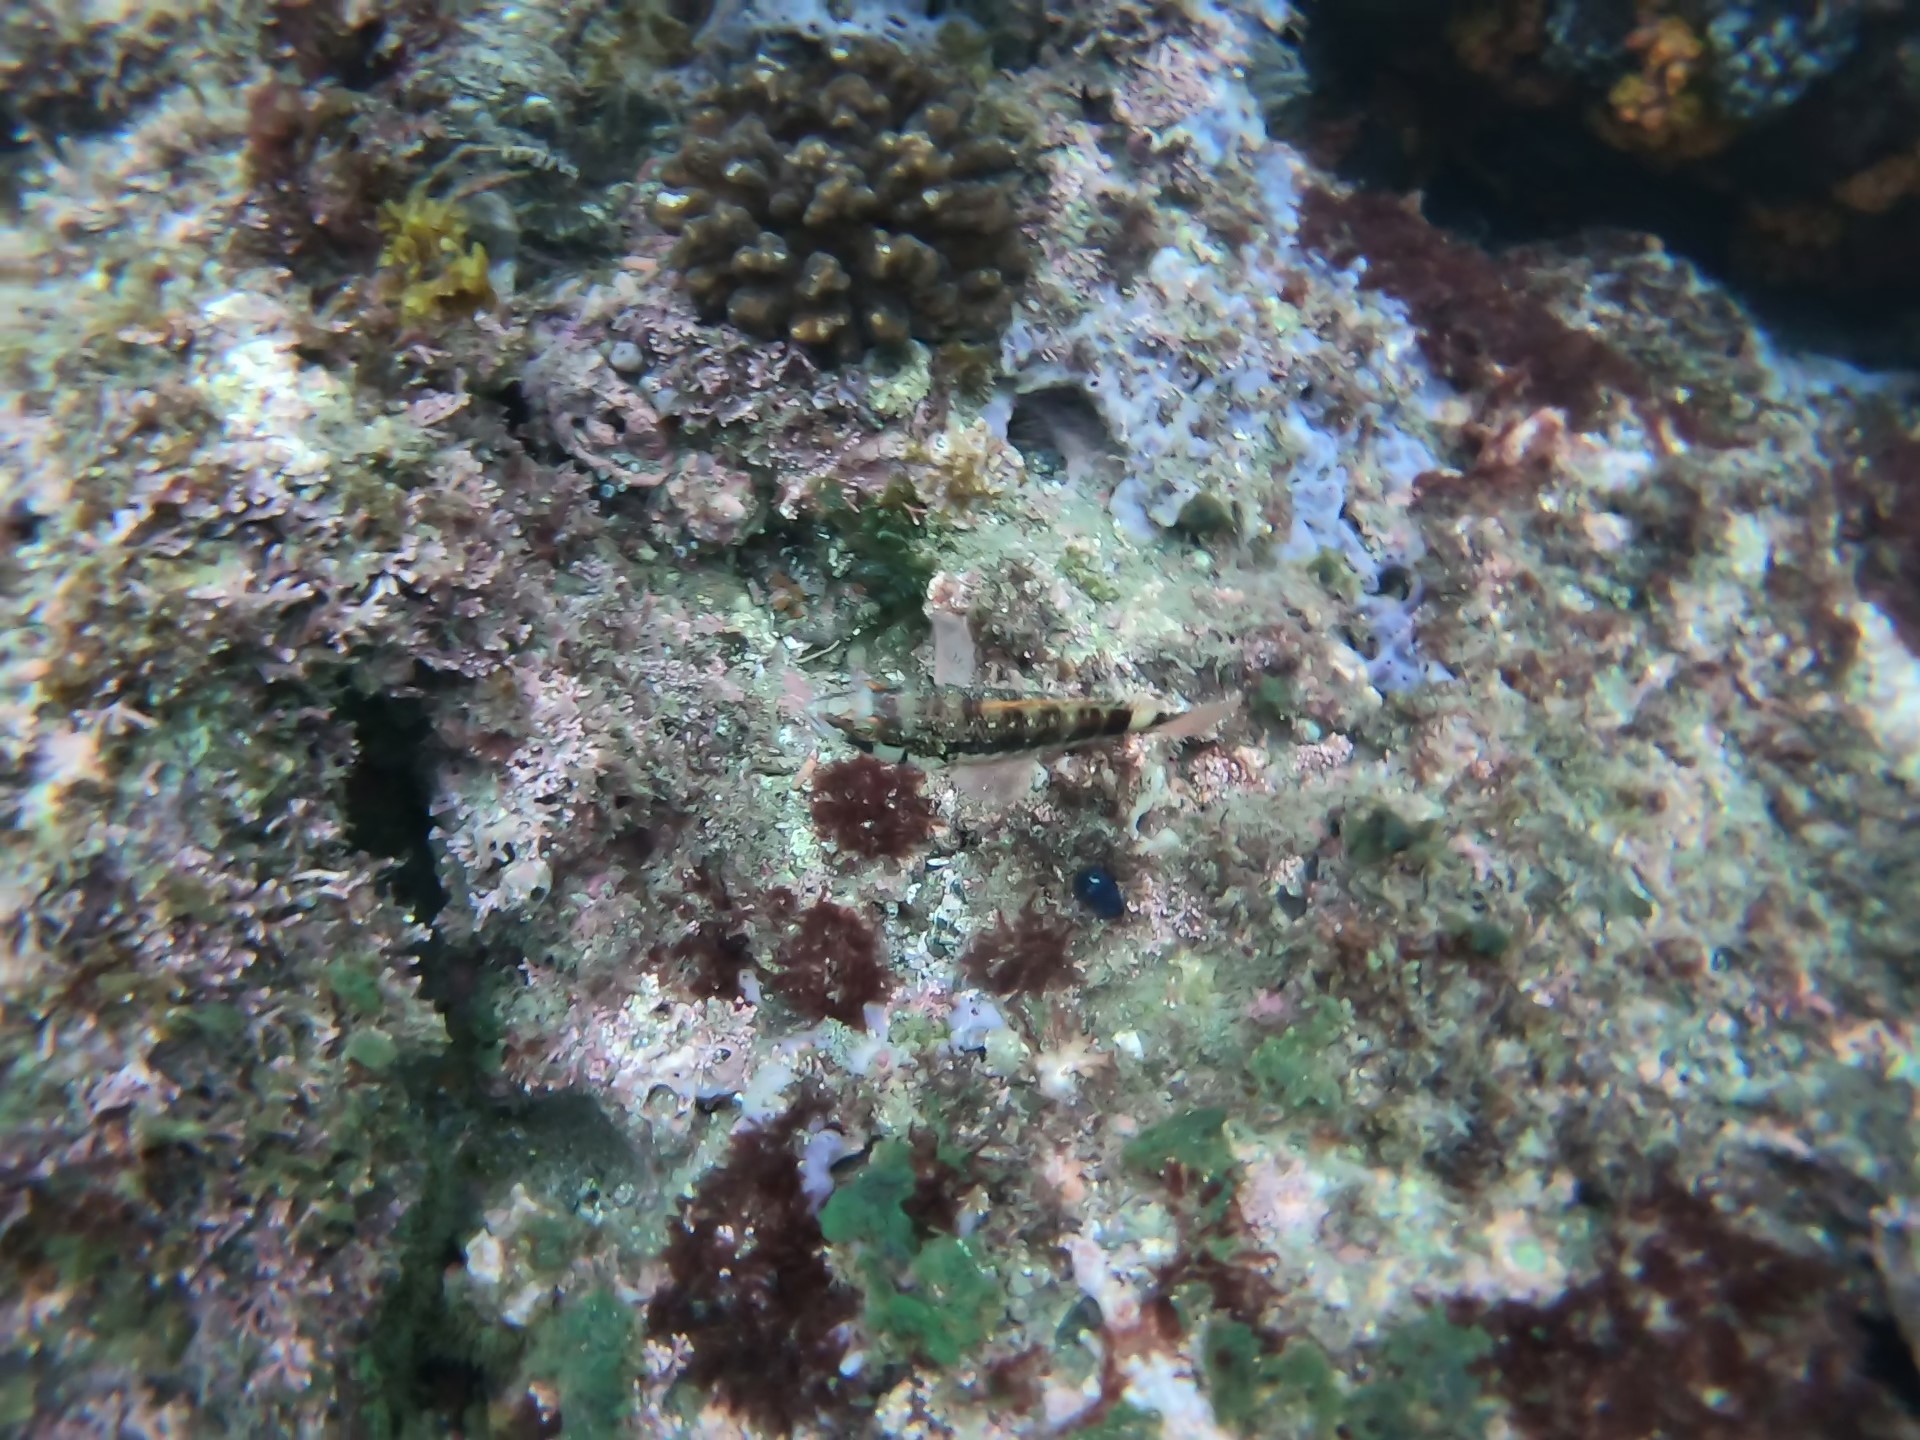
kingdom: Animalia
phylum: Chordata
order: Perciformes
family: Serranidae
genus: Serranus
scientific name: Serranus psittacinus
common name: Barred serrano
